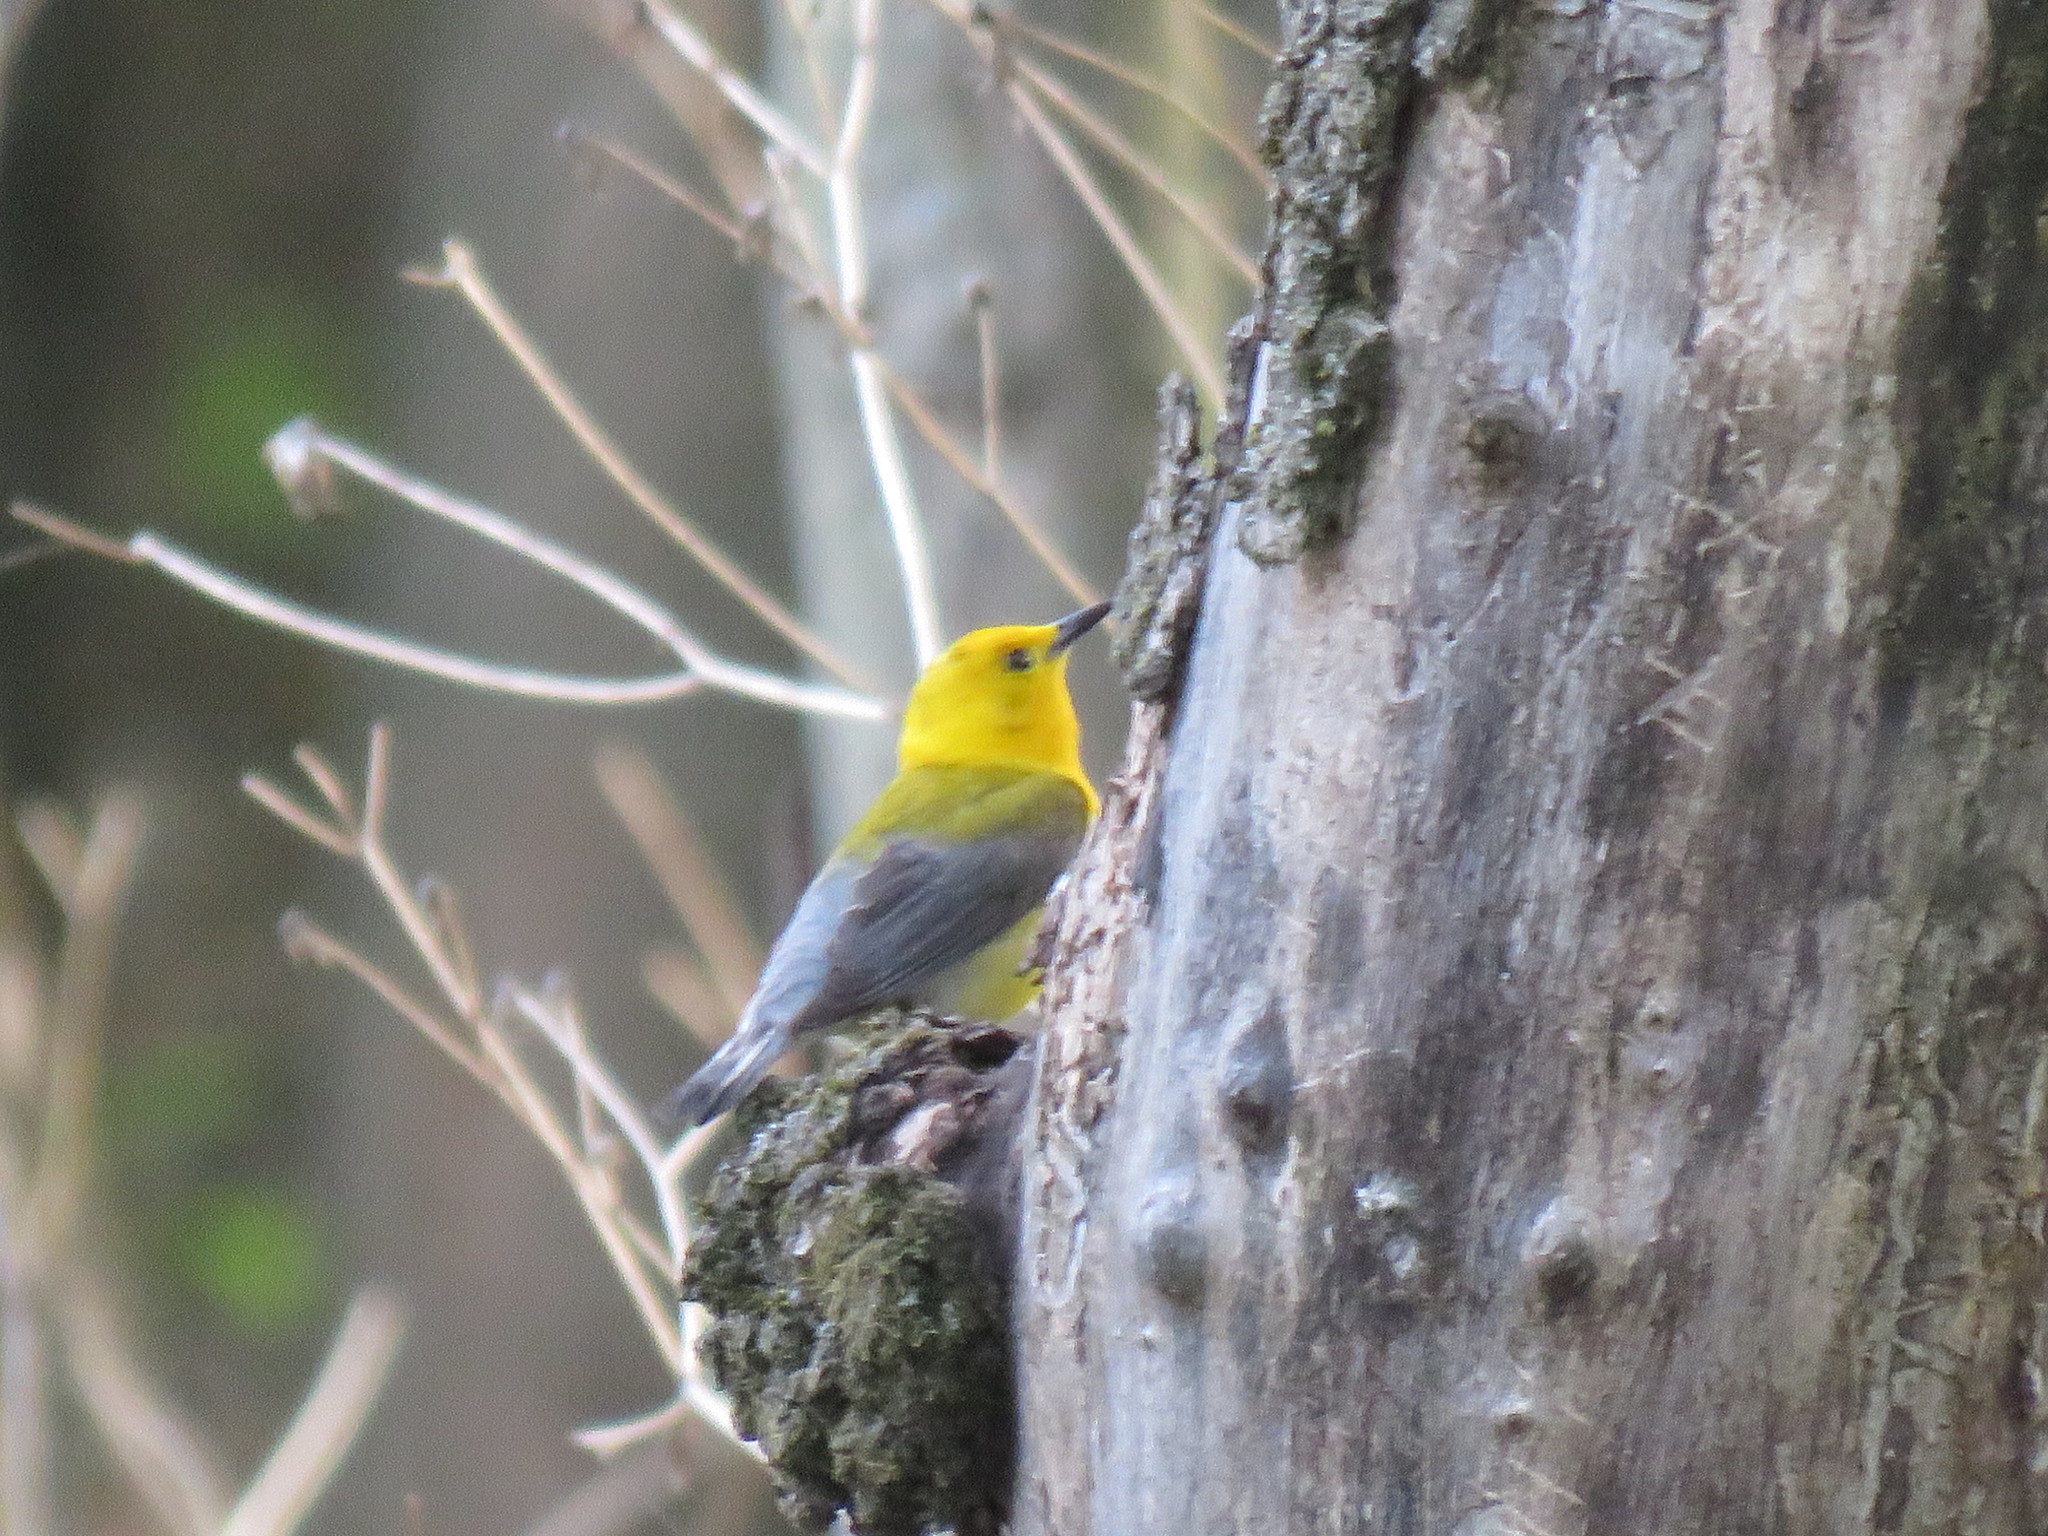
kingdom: Animalia
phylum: Chordata
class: Aves
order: Passeriformes
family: Parulidae
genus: Protonotaria
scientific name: Protonotaria citrea
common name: Prothonotary warbler
